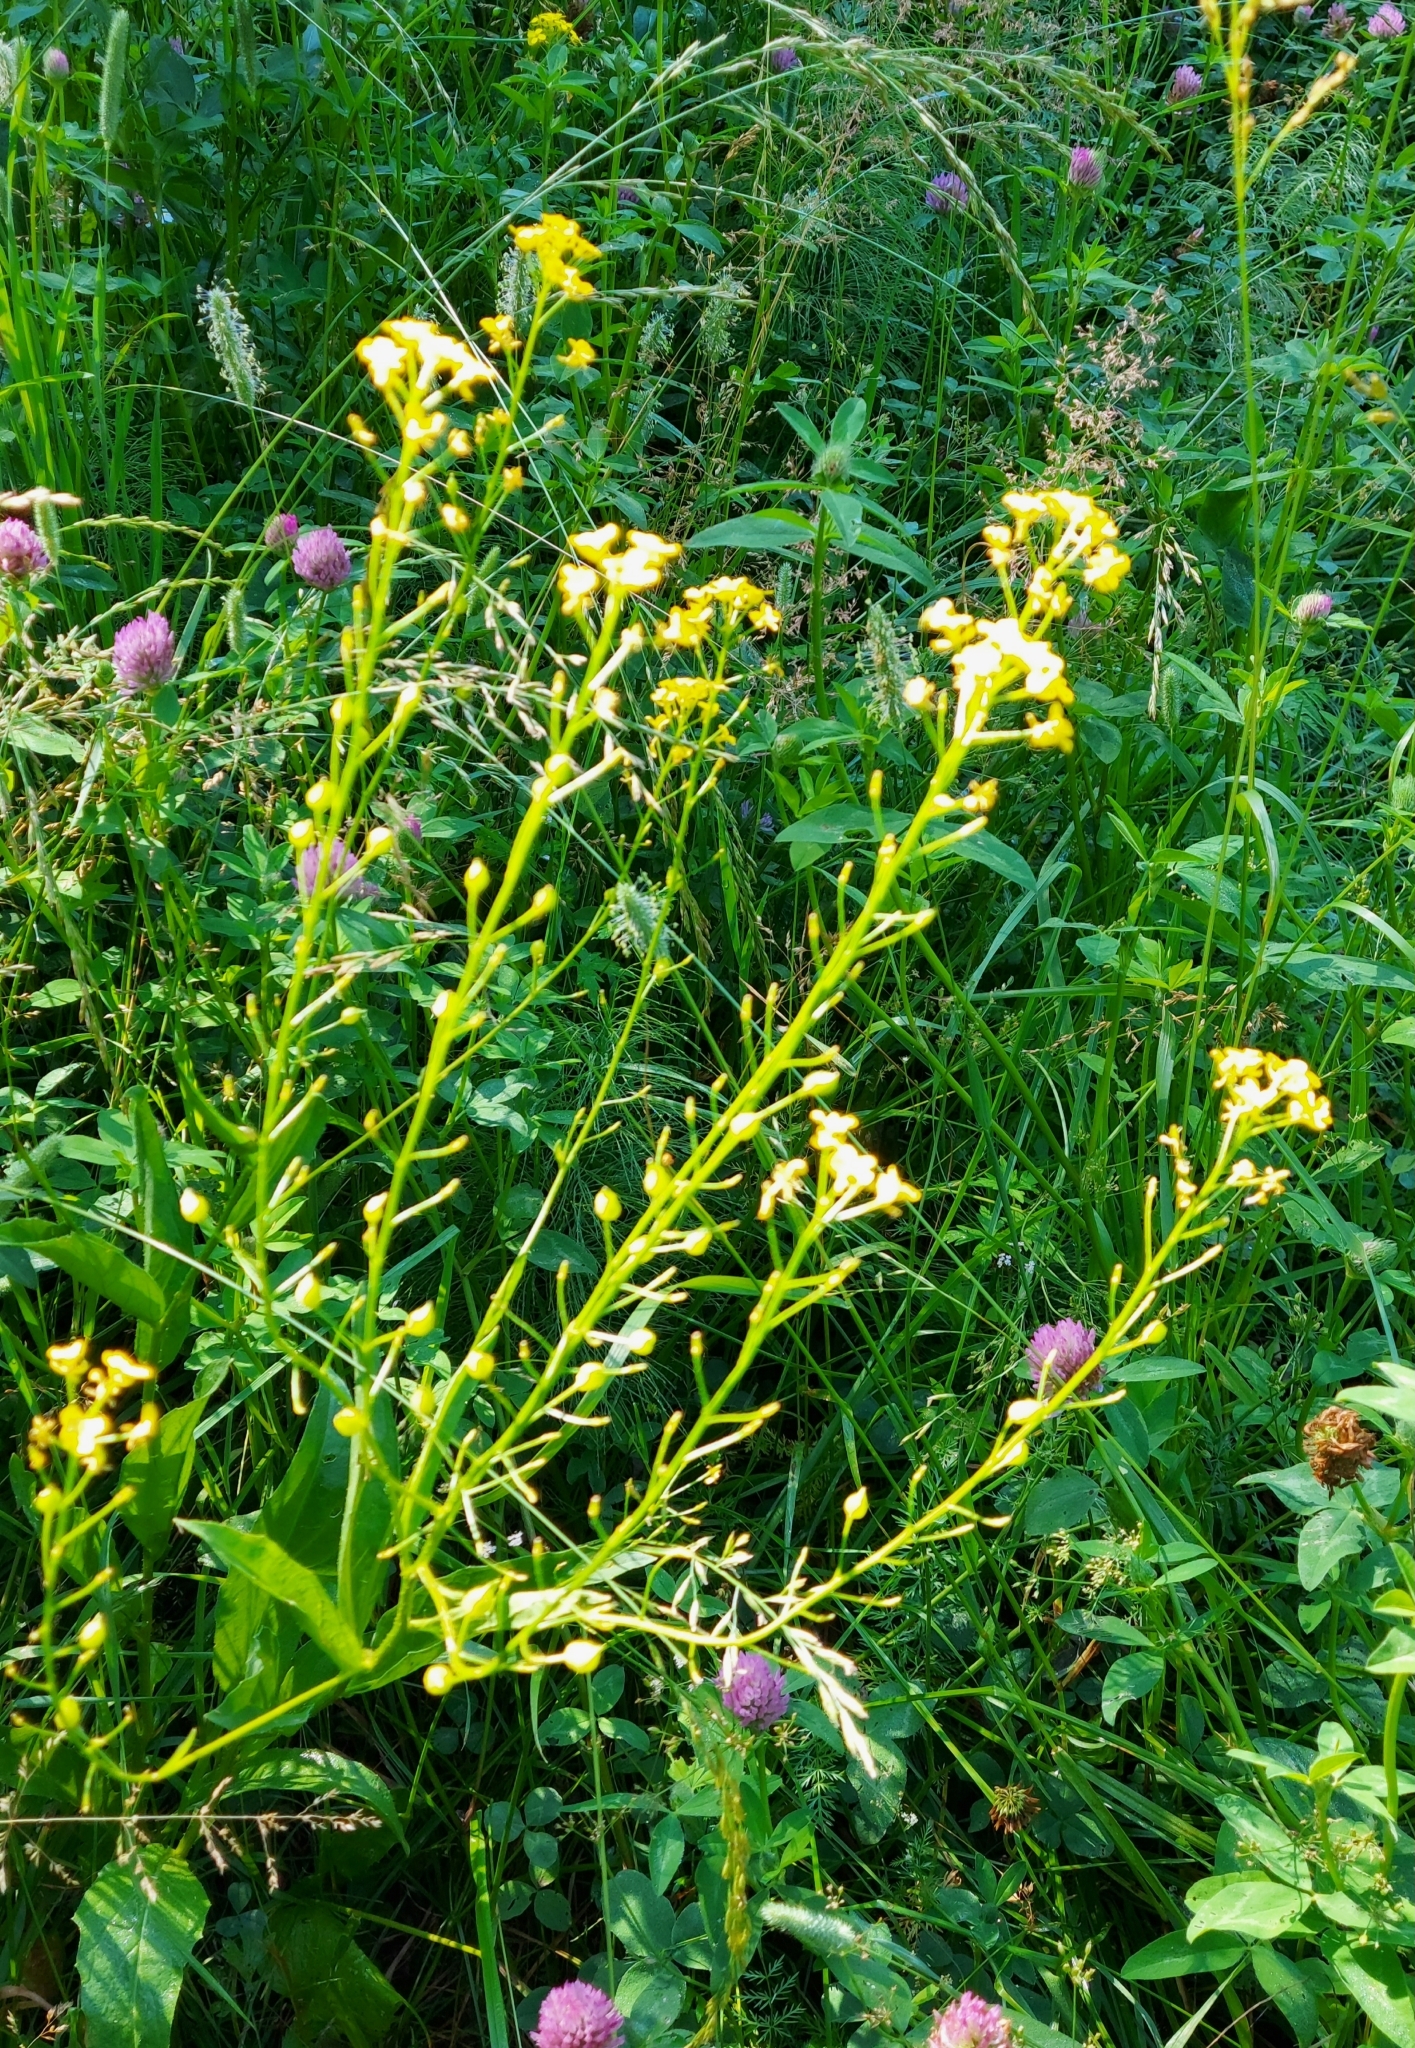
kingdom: Plantae
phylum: Tracheophyta
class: Magnoliopsida
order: Brassicales
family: Brassicaceae
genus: Bunias
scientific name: Bunias orientalis
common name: Warty-cabbage
